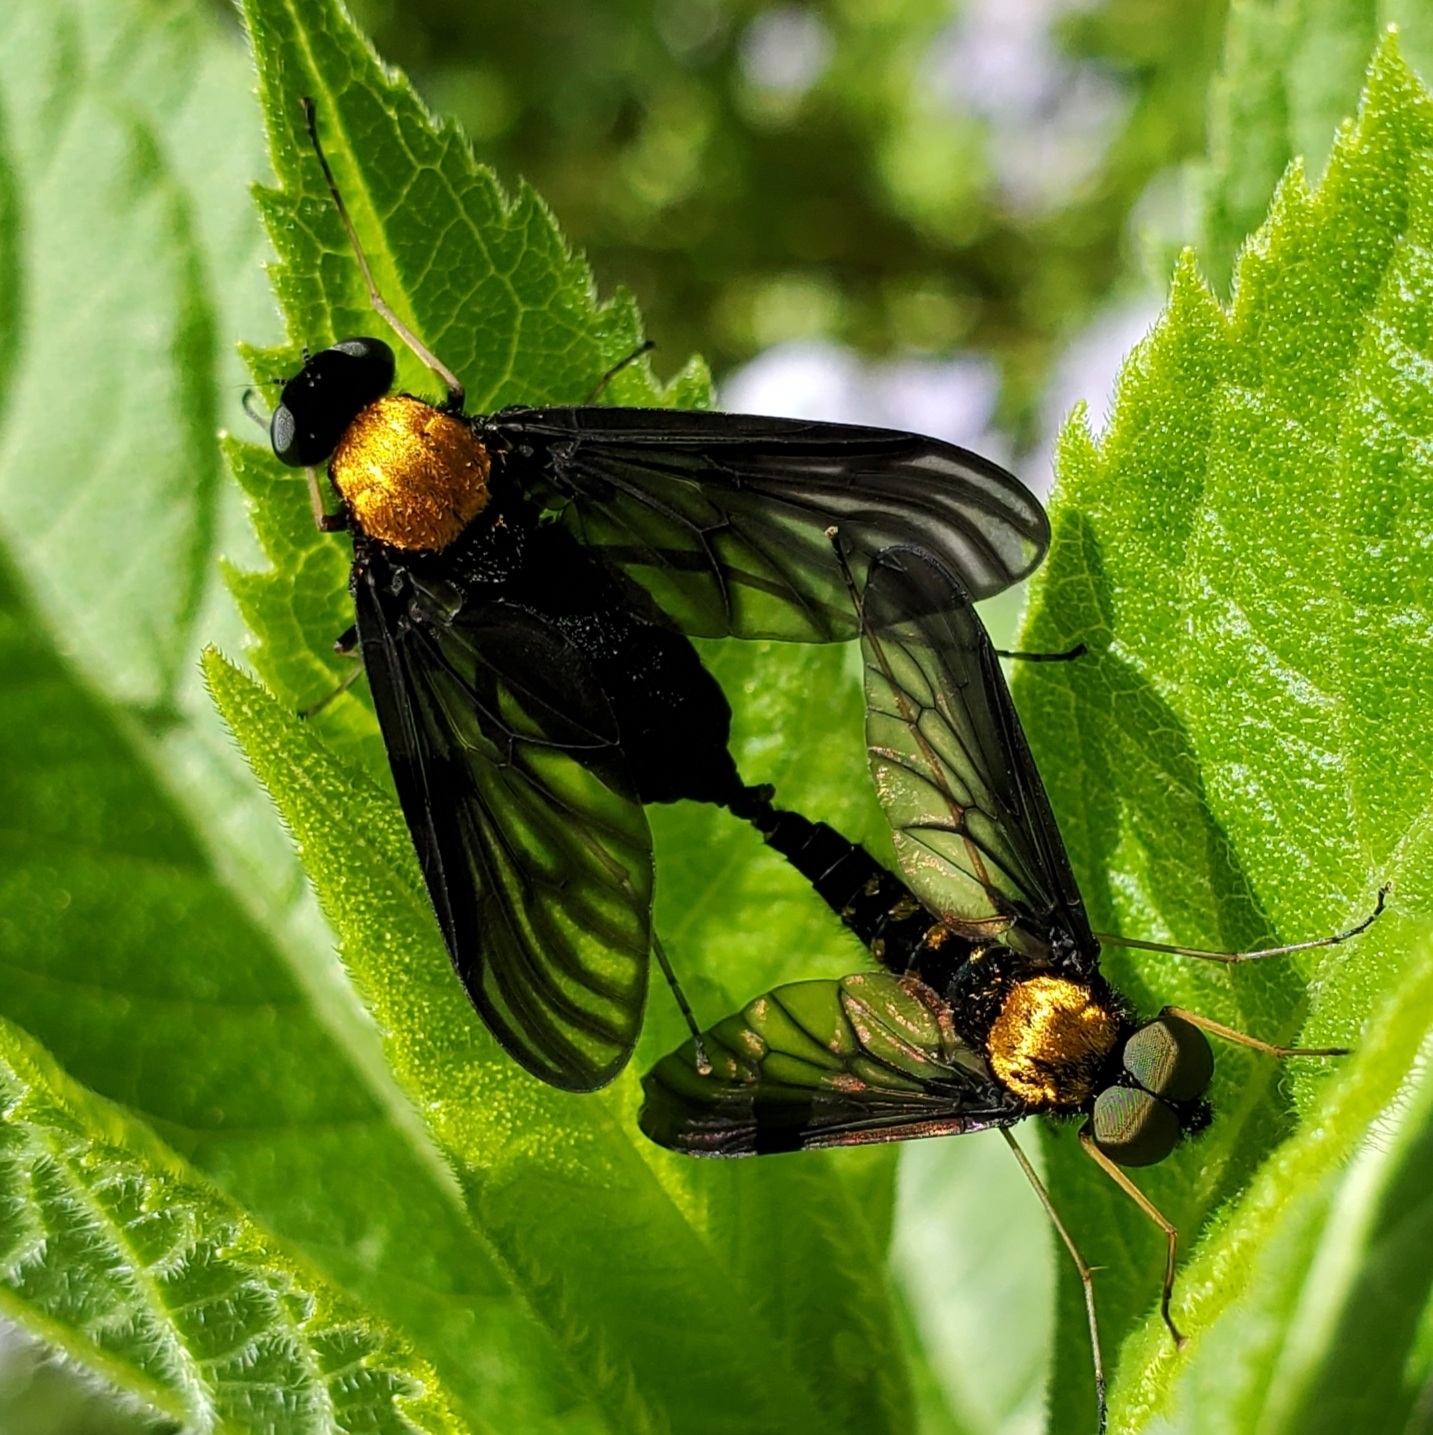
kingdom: Animalia
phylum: Arthropoda
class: Insecta
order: Diptera
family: Rhagionidae
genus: Chrysopilus
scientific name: Chrysopilus thoracicus
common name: Golden-backed snipe fly
